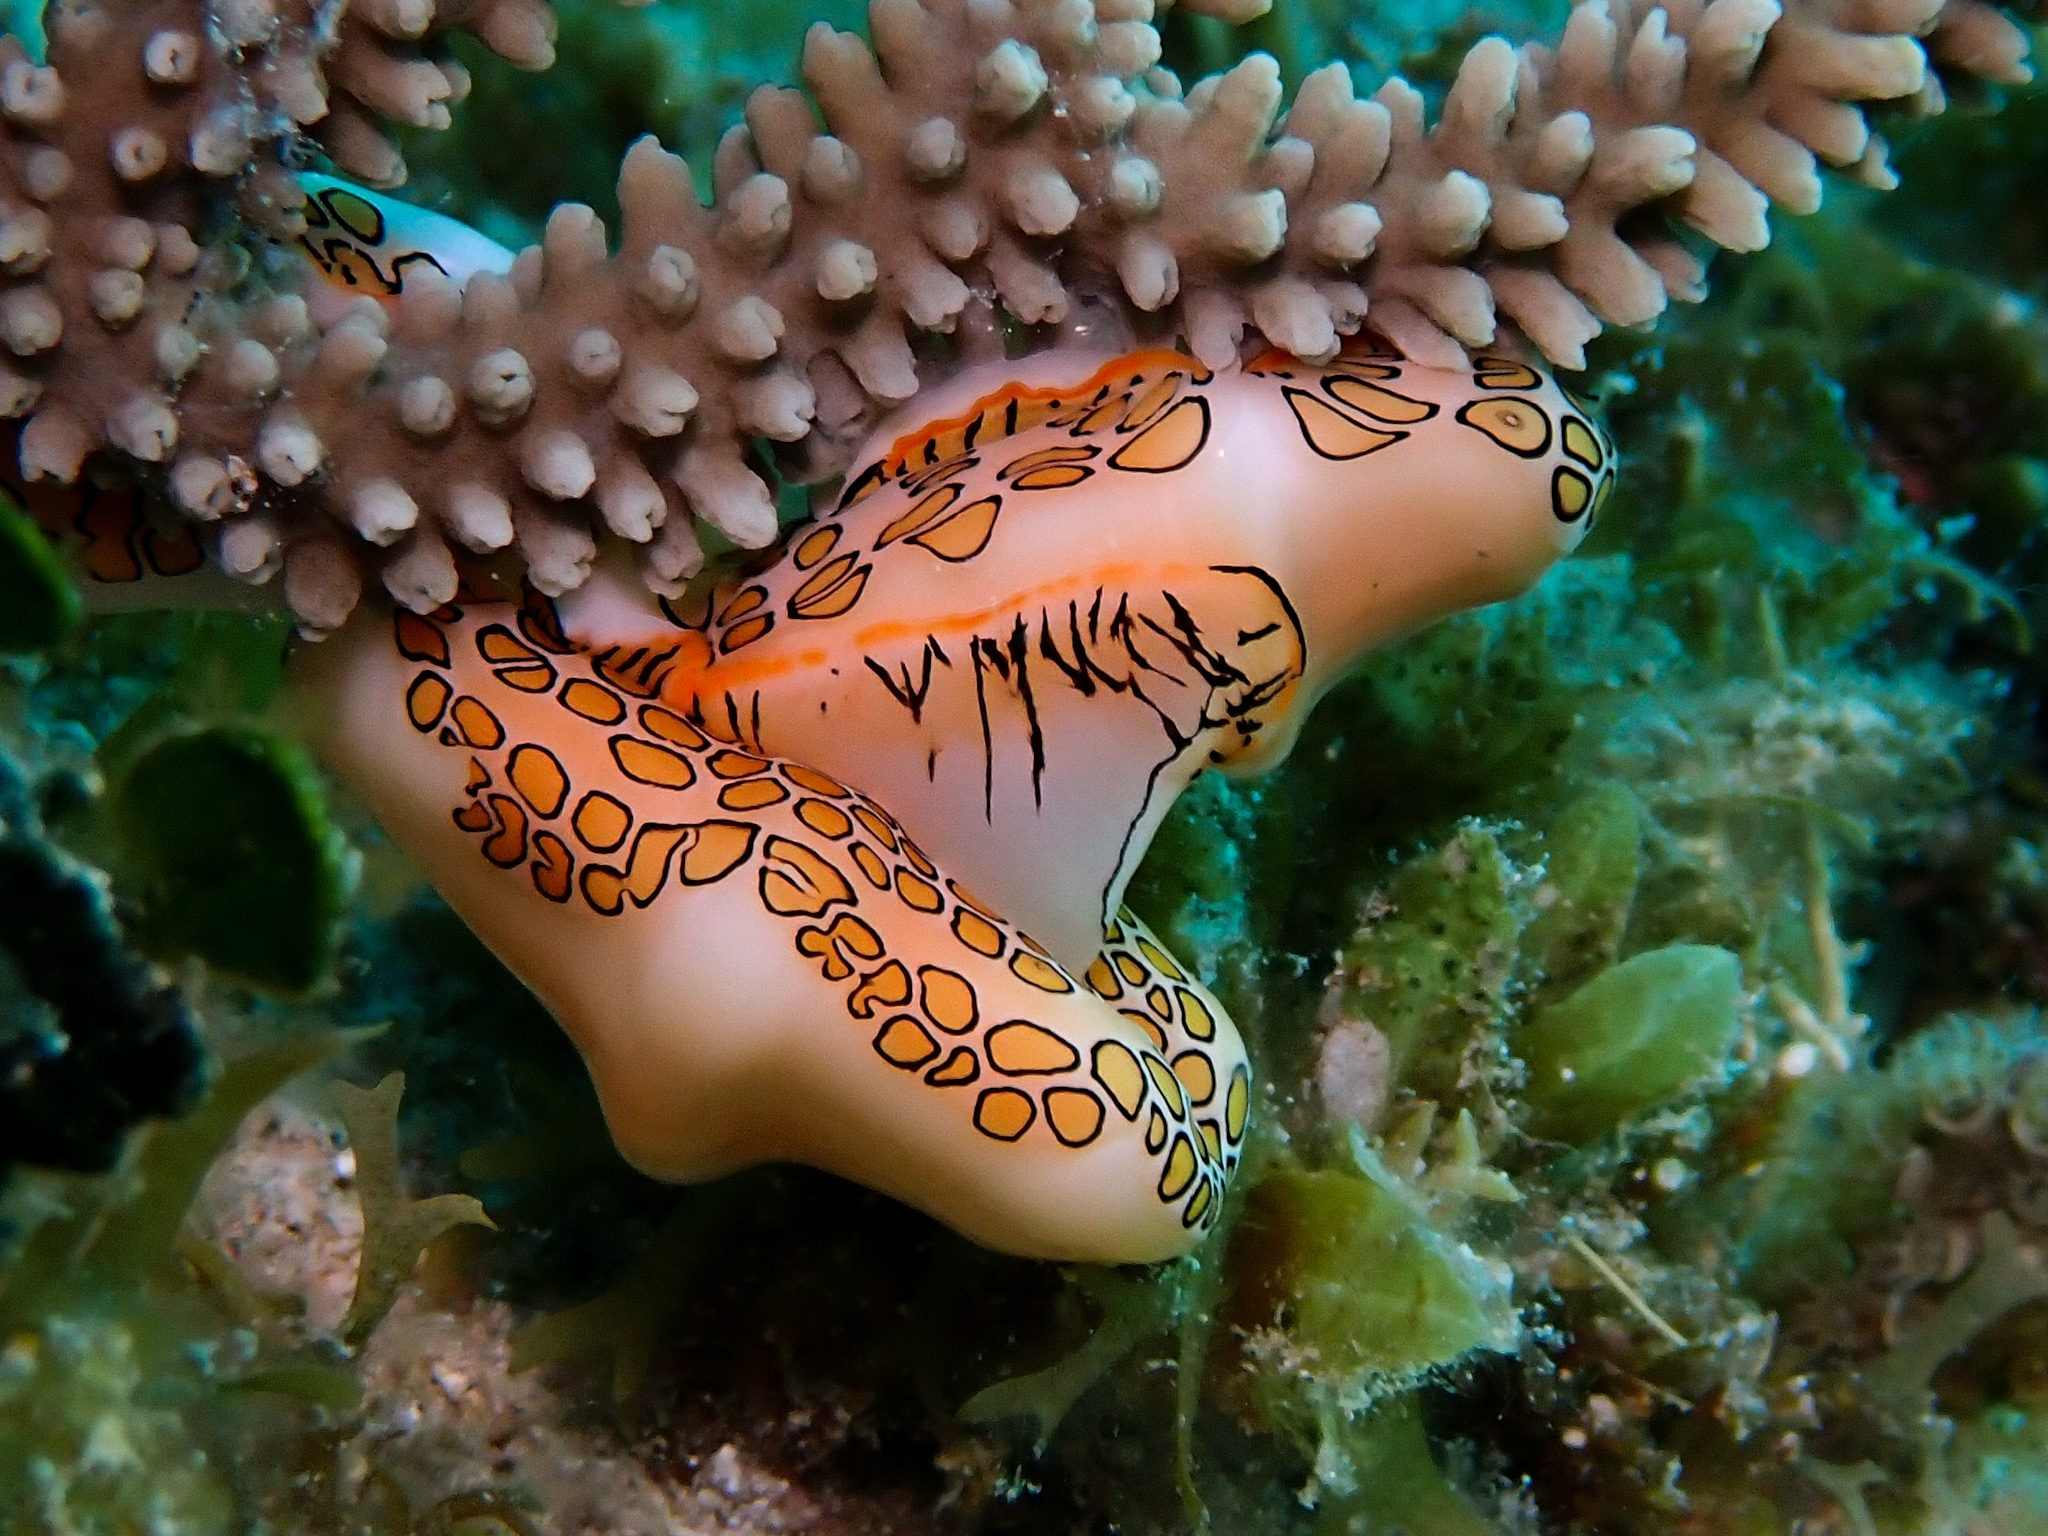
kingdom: Animalia
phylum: Mollusca
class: Gastropoda
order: Littorinimorpha
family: Ovulidae
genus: Cyphoma
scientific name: Cyphoma gibbosum
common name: Flamingo tongue
